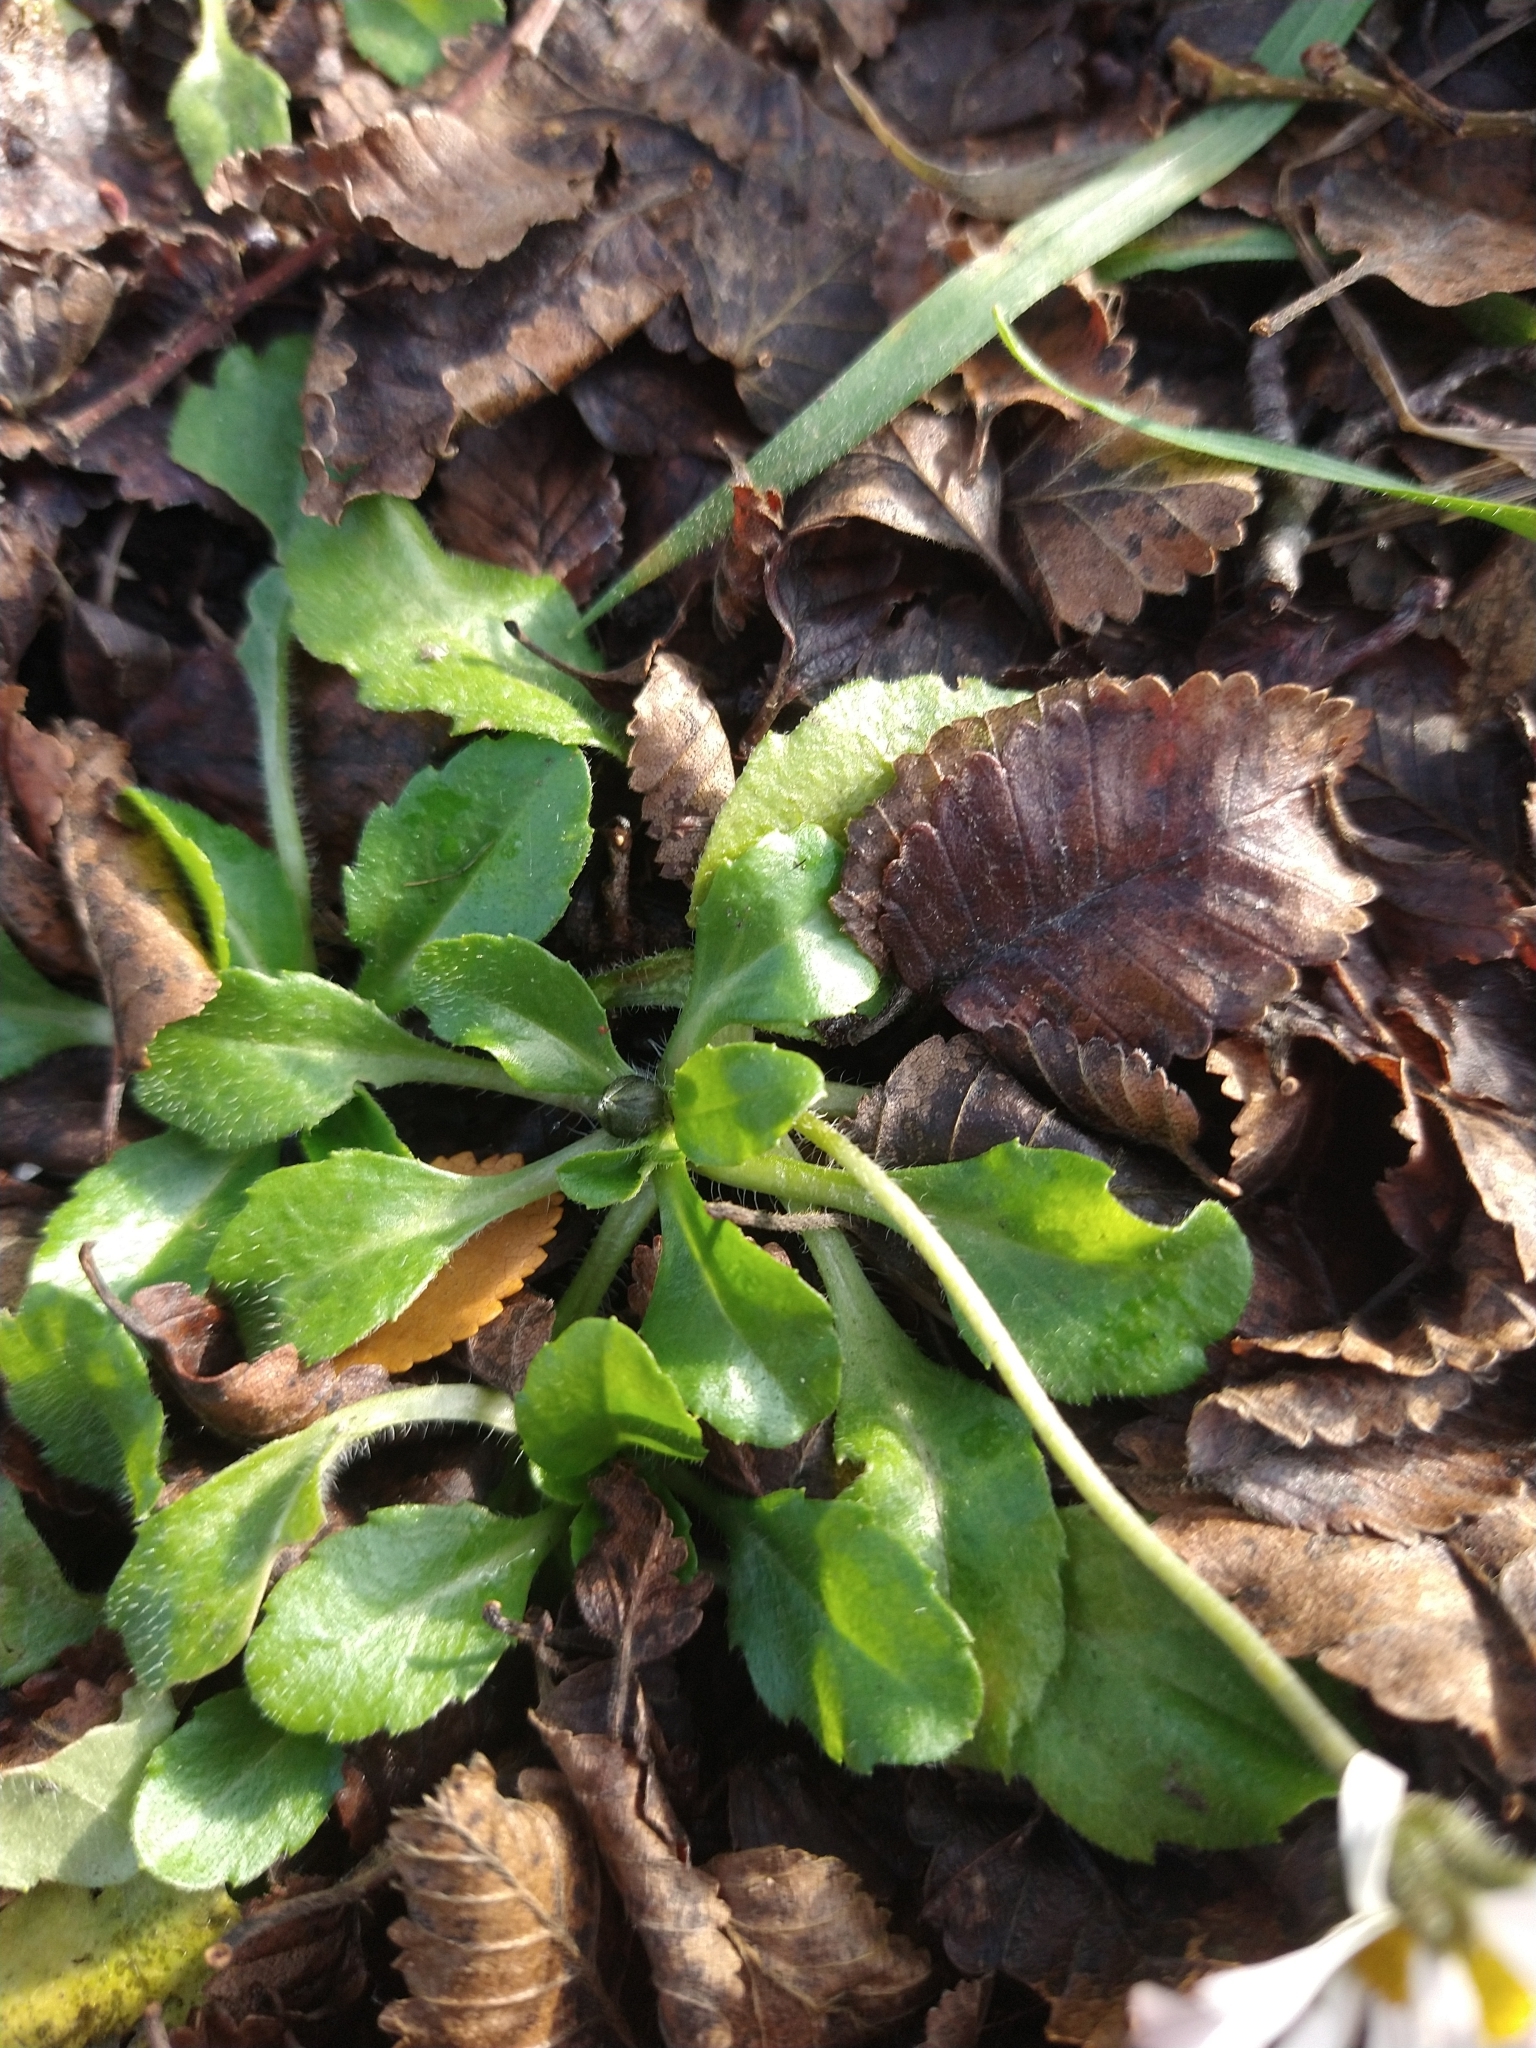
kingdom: Plantae
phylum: Tracheophyta
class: Magnoliopsida
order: Asterales
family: Asteraceae
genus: Bellis
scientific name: Bellis perennis
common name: Lawndaisy
